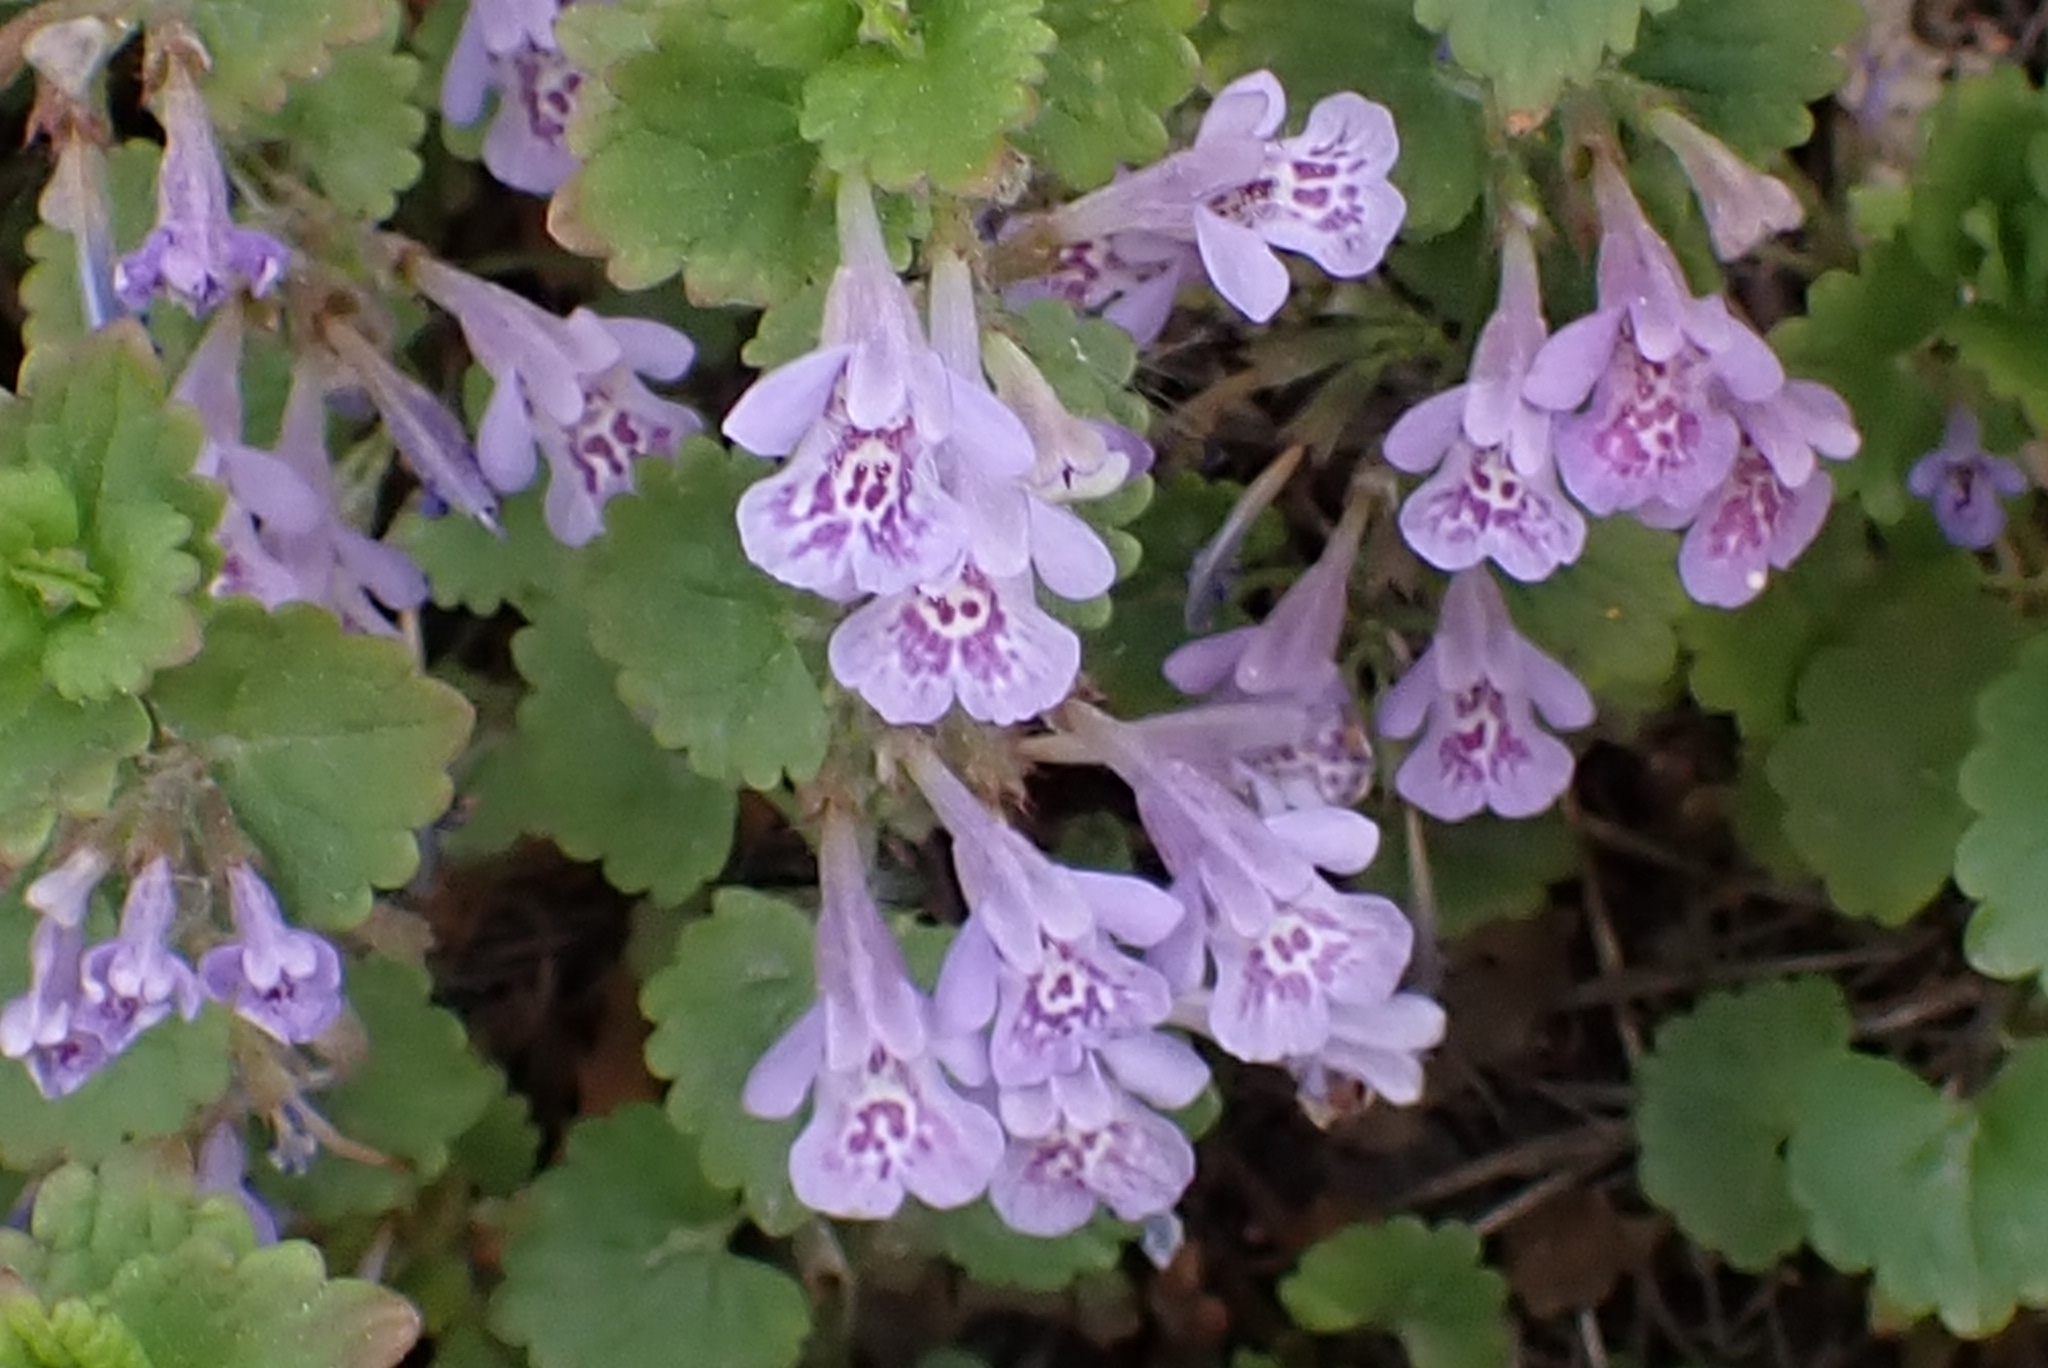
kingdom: Plantae
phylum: Tracheophyta
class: Magnoliopsida
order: Lamiales
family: Lamiaceae
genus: Glechoma
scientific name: Glechoma hederacea
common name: Ground ivy
